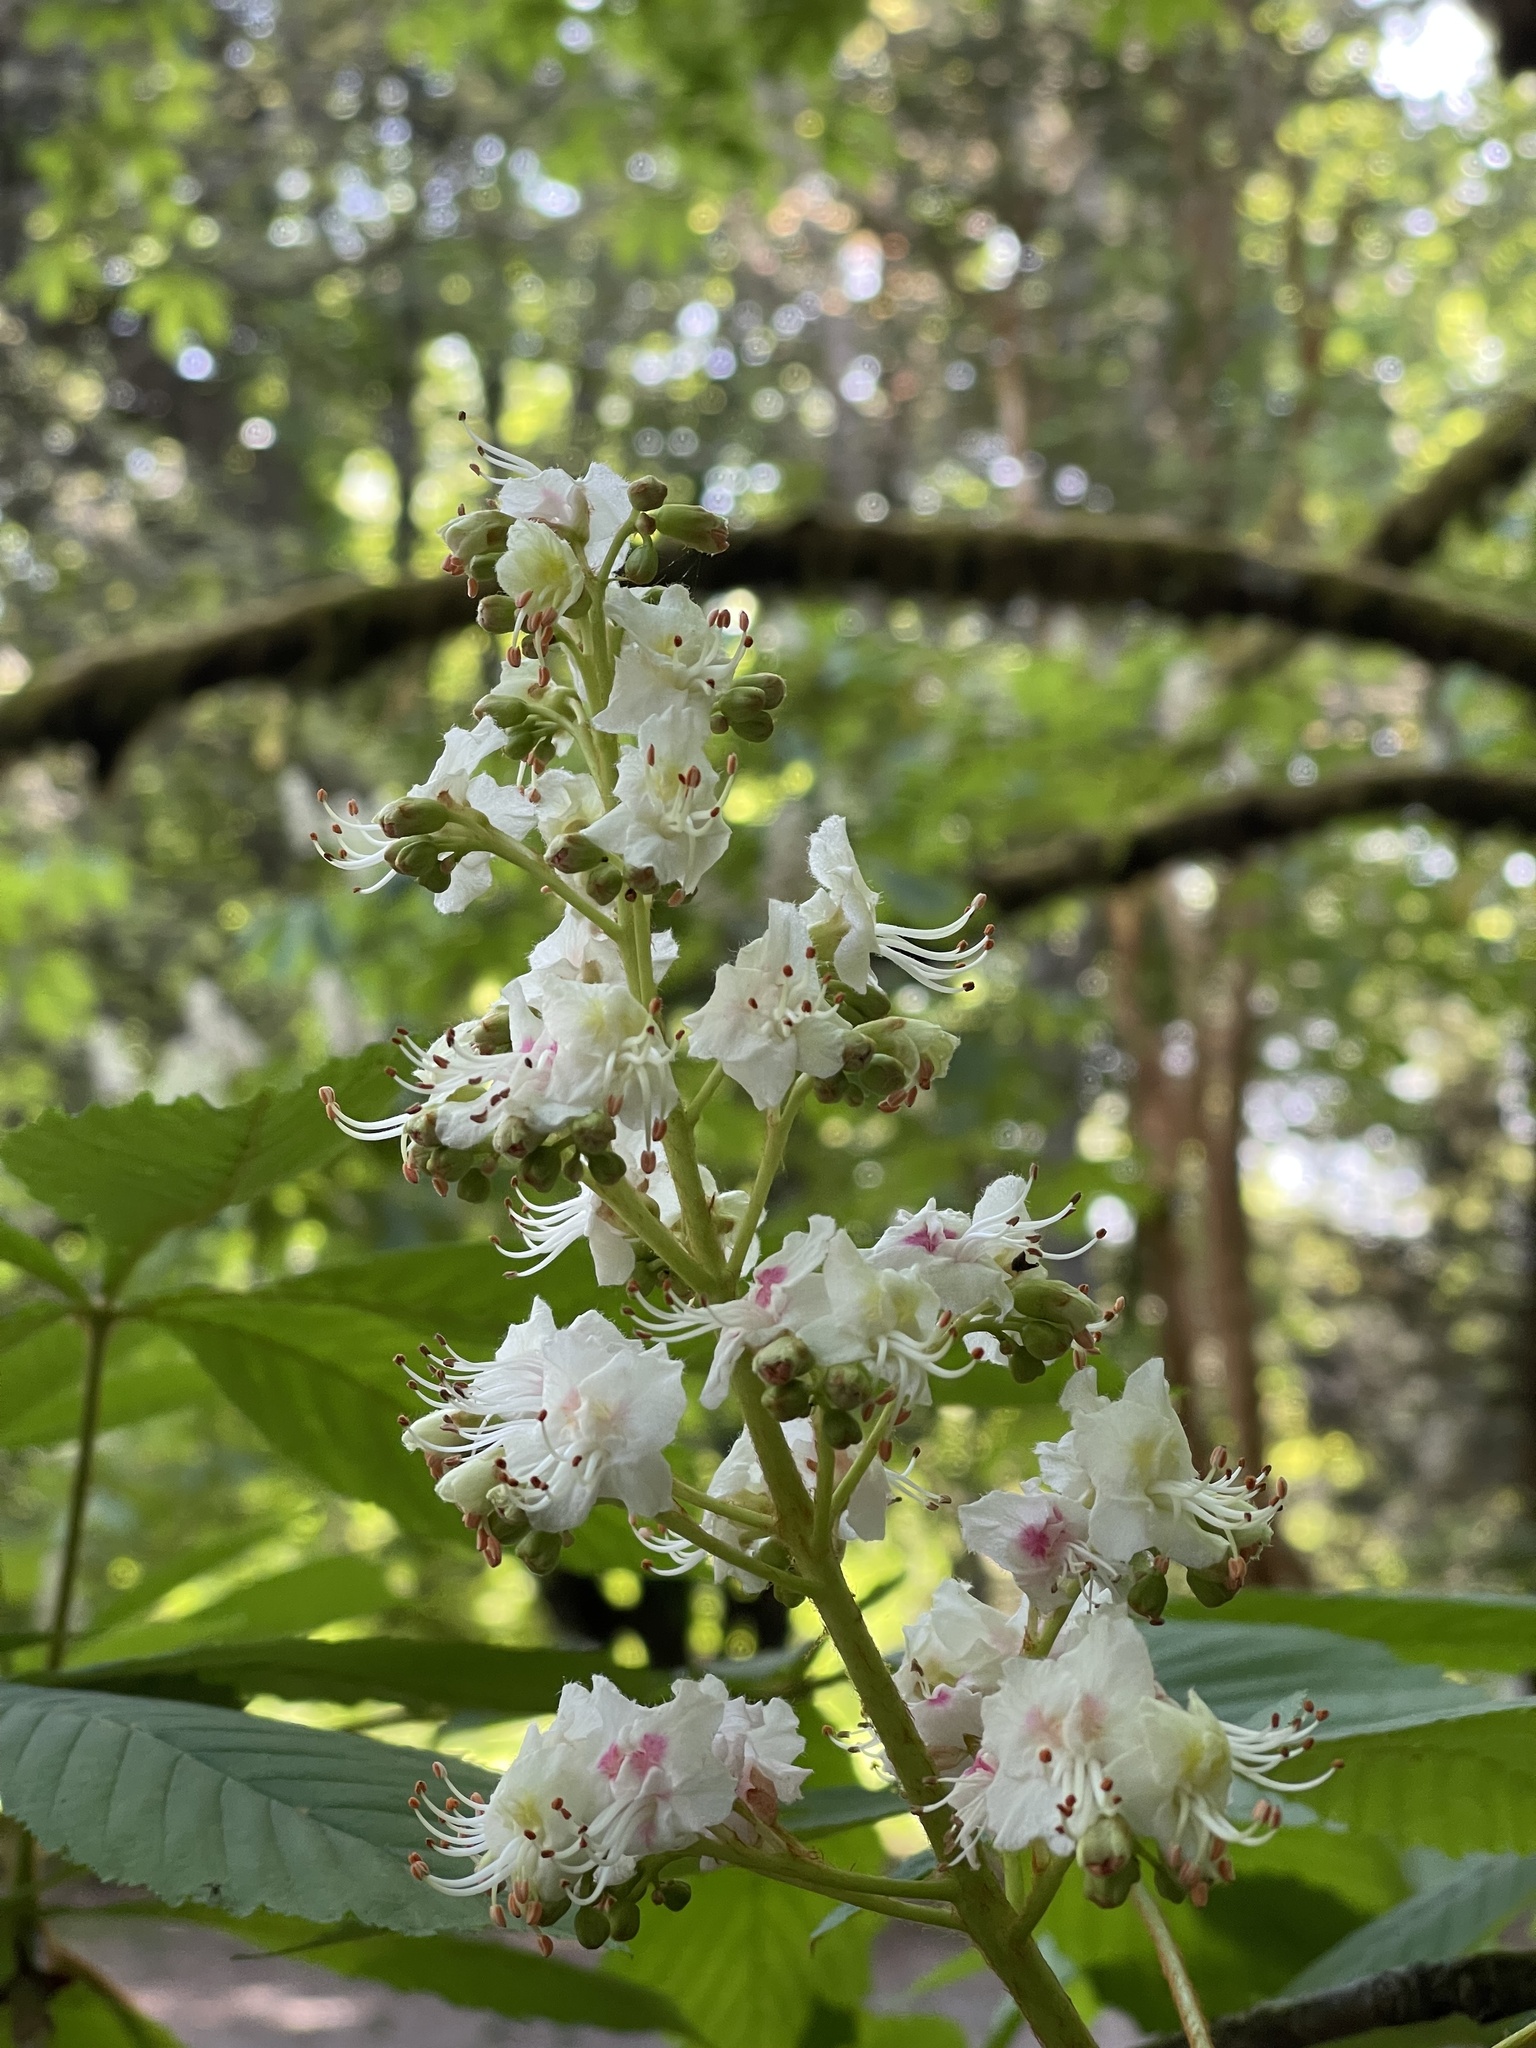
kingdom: Plantae
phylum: Tracheophyta
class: Magnoliopsida
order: Sapindales
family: Sapindaceae
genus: Aesculus
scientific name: Aesculus hippocastanum
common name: Horse-chestnut
